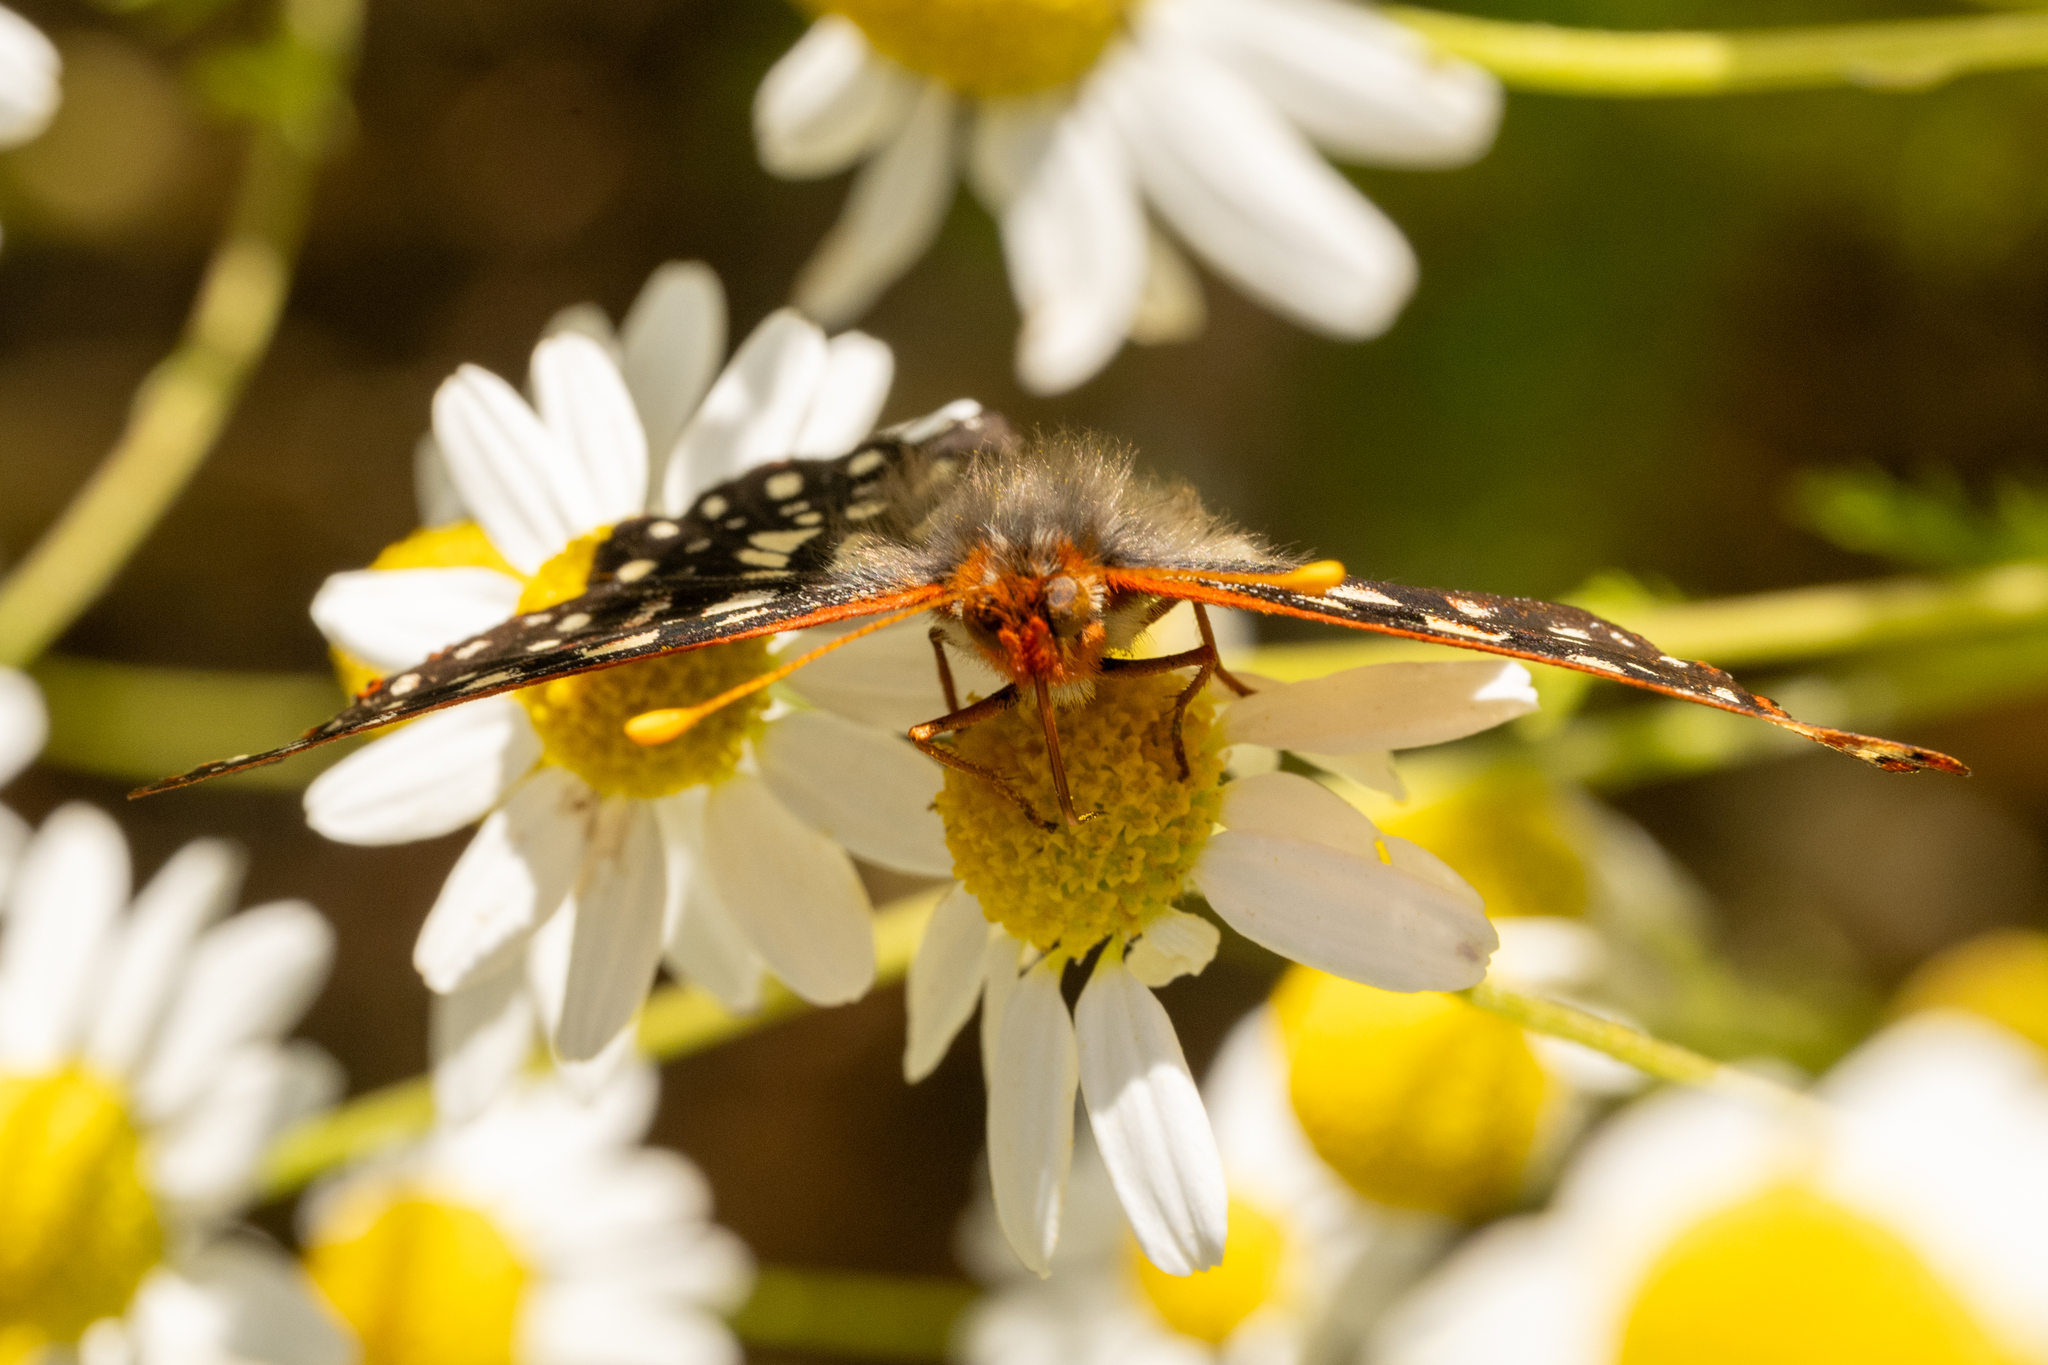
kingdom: Animalia
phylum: Arthropoda
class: Insecta
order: Lepidoptera
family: Nymphalidae
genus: Occidryas
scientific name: Occidryas chalcedona
